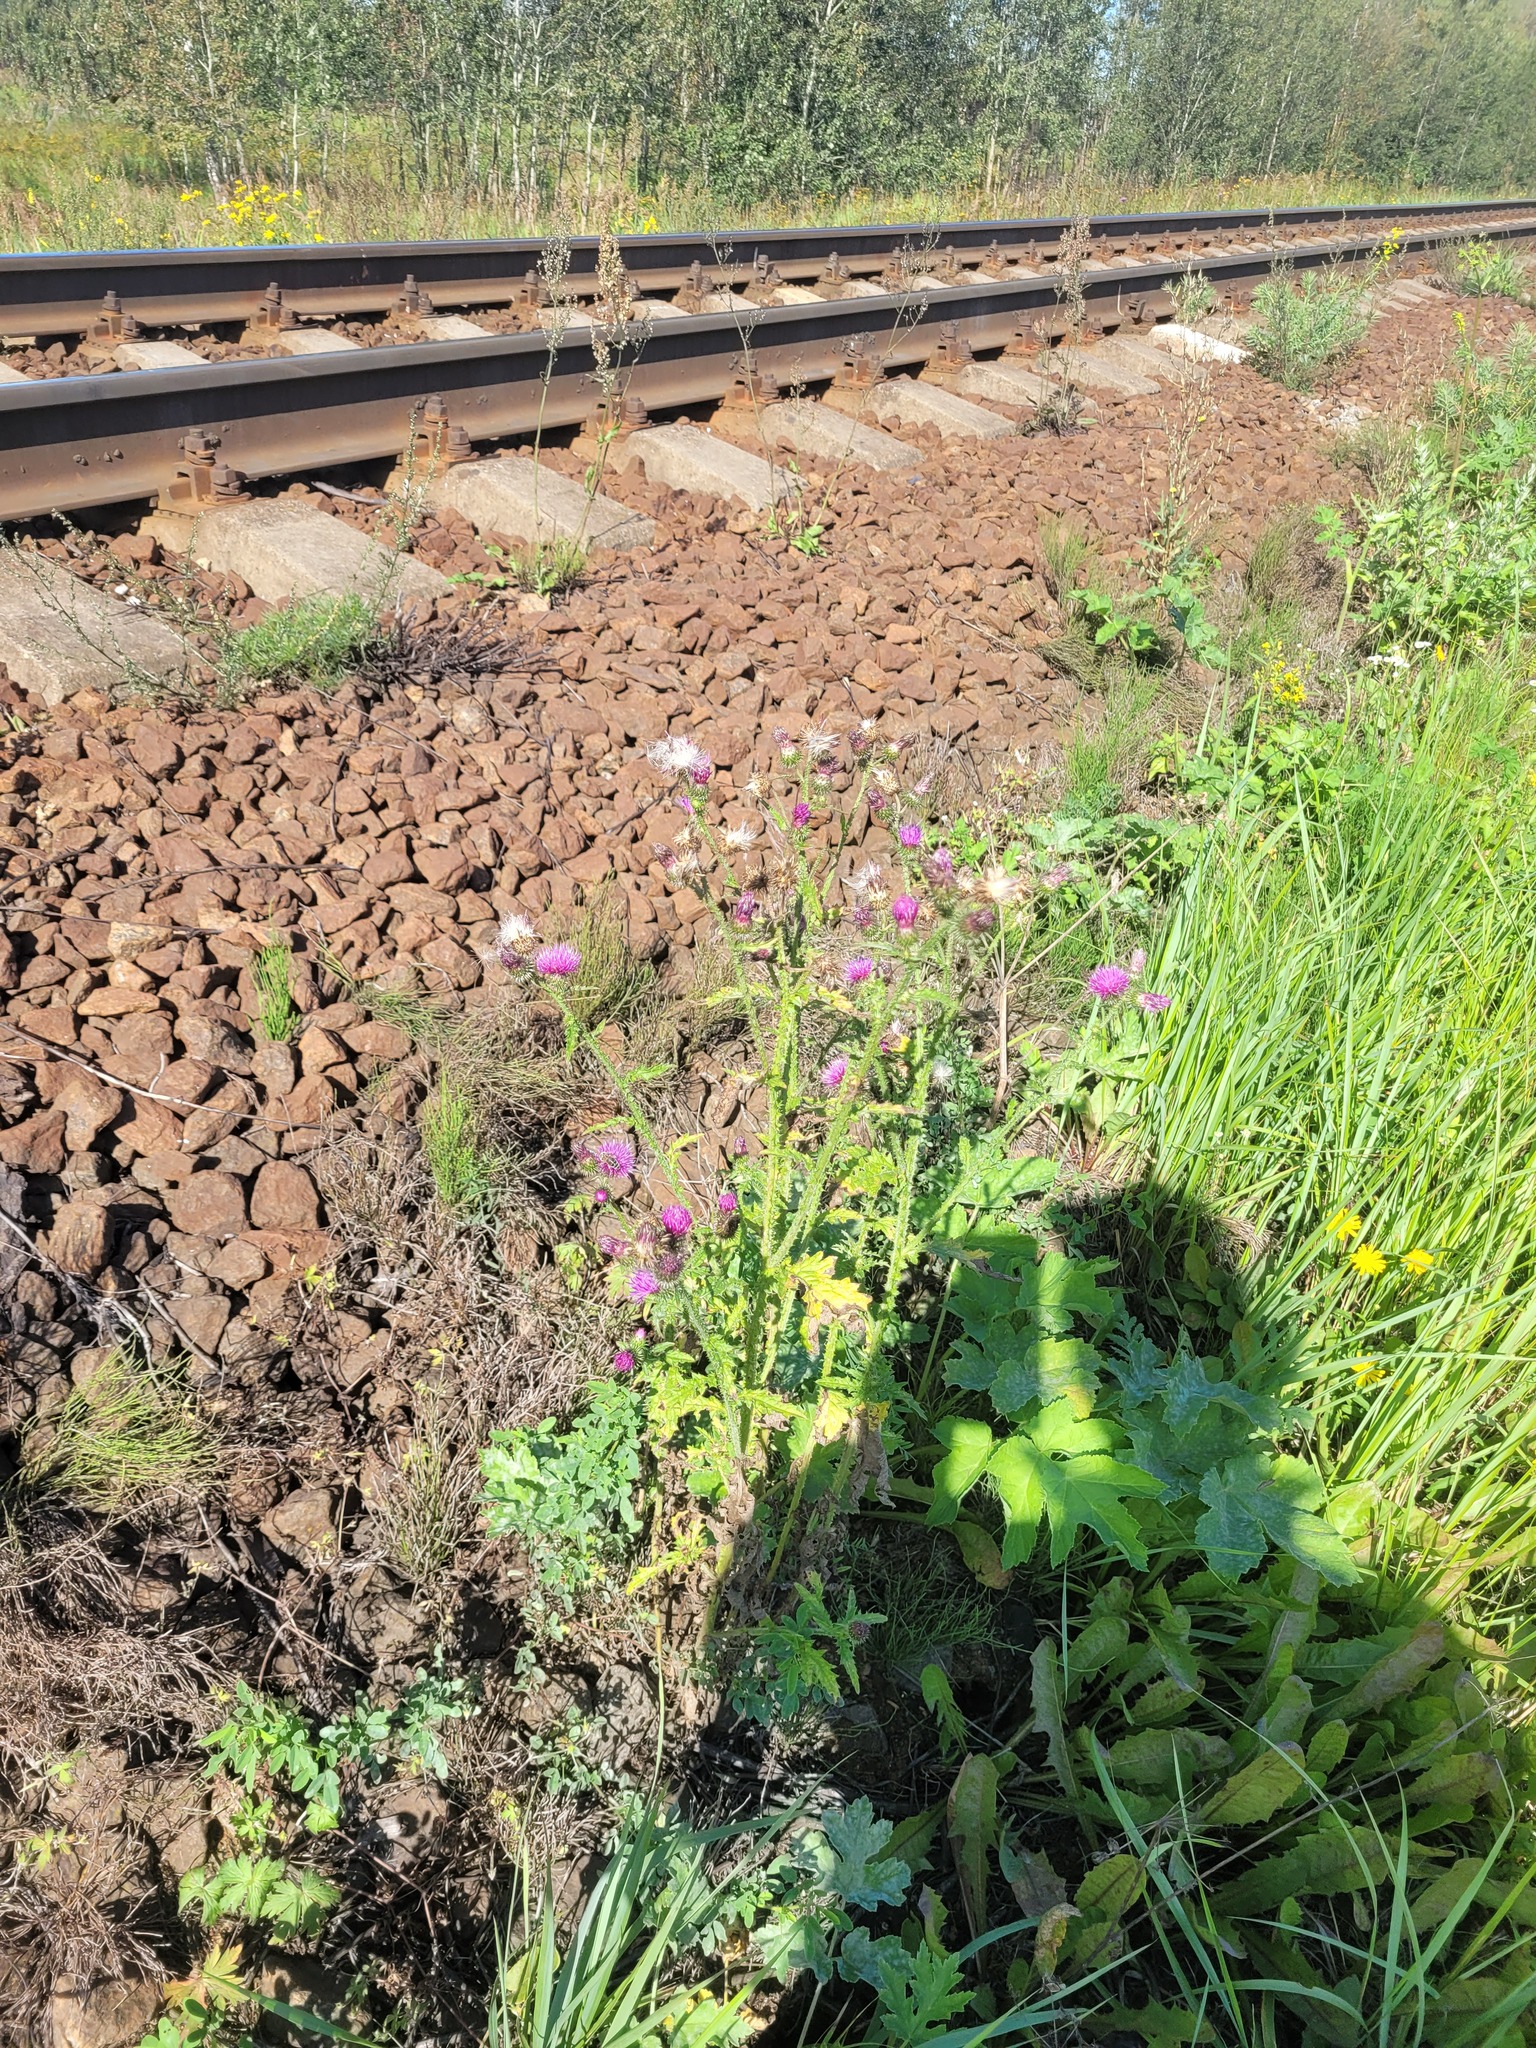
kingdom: Plantae
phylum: Tracheophyta
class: Magnoliopsida
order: Asterales
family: Asteraceae
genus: Carduus
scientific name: Carduus crispus
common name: Welted thistle
